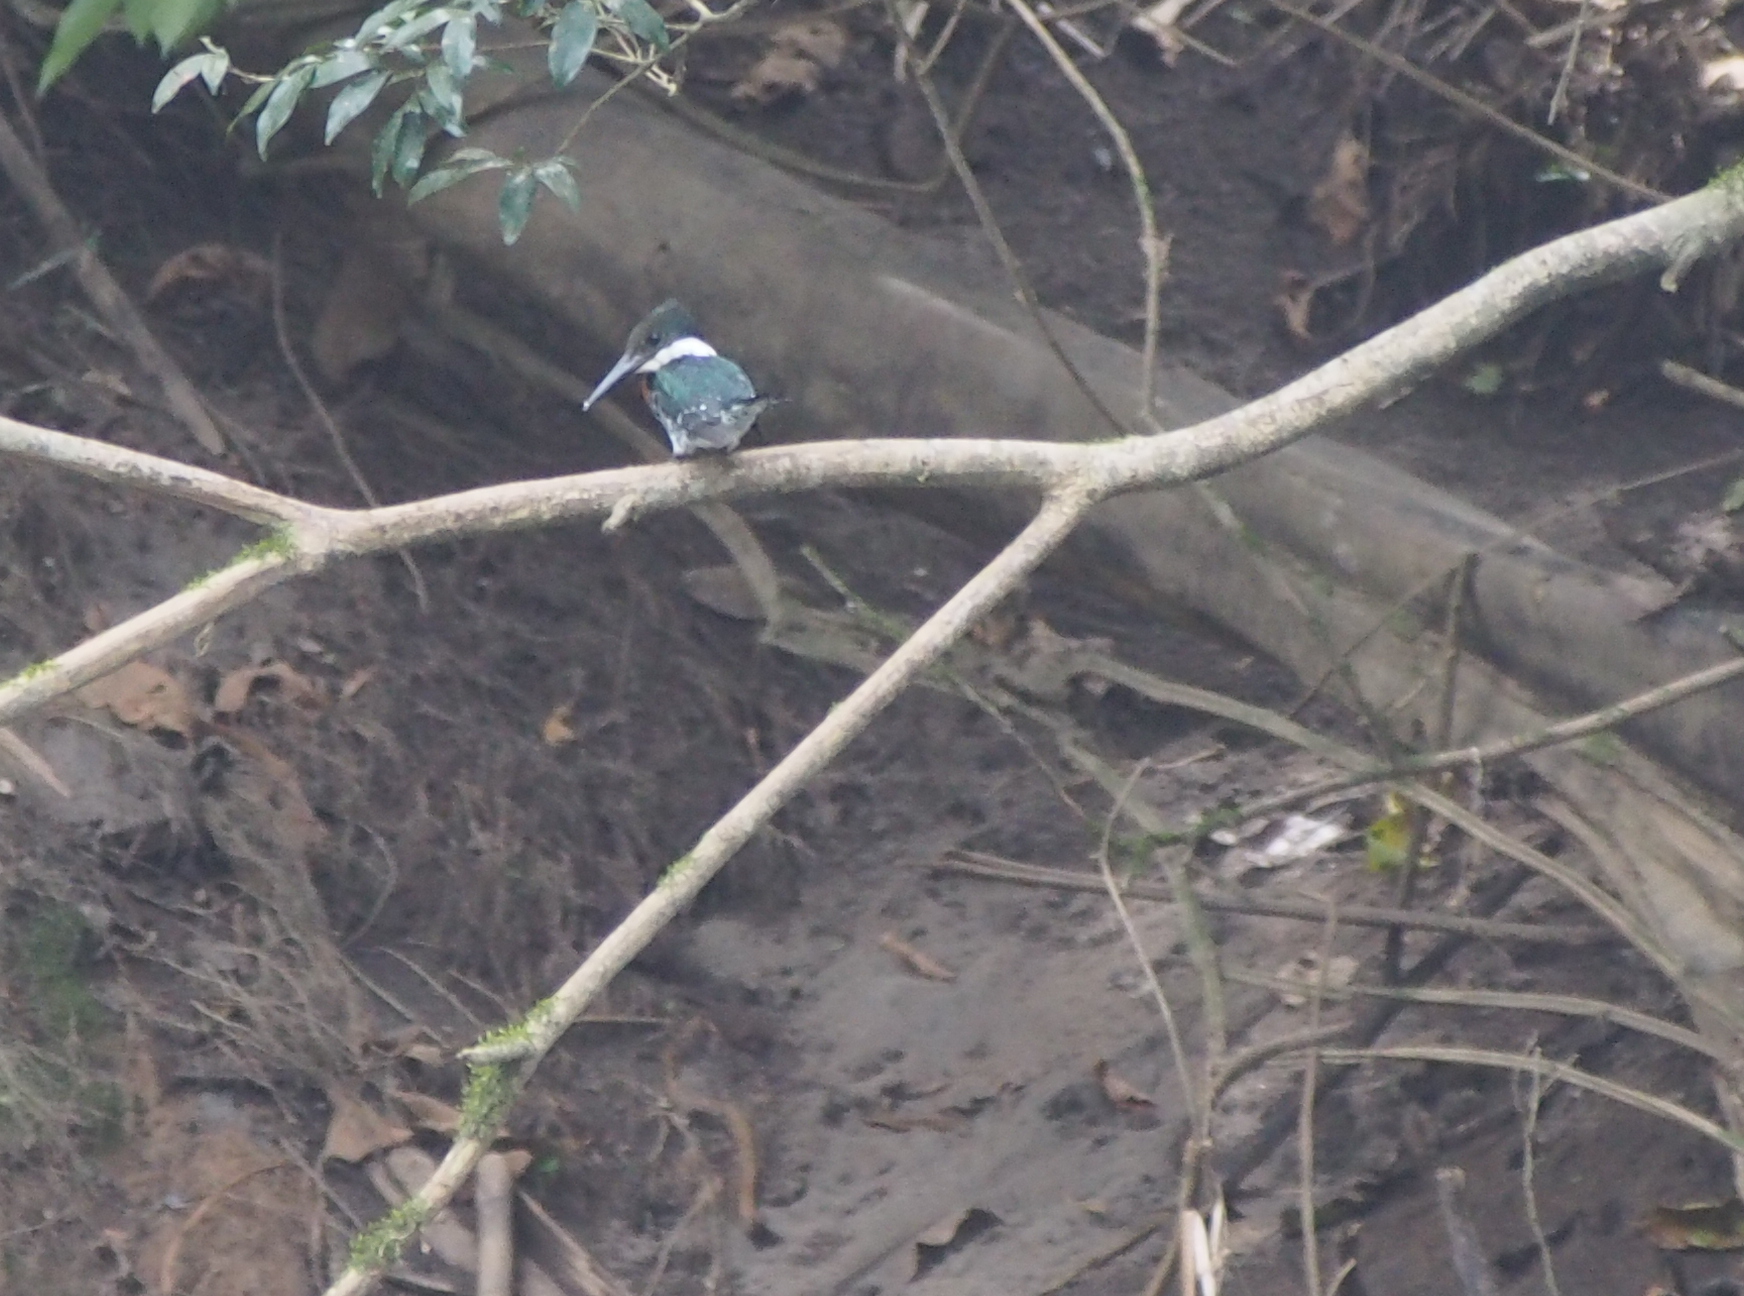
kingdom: Animalia
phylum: Chordata
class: Aves
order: Coraciiformes
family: Alcedinidae
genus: Chloroceryle
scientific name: Chloroceryle americana
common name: Green kingfisher
